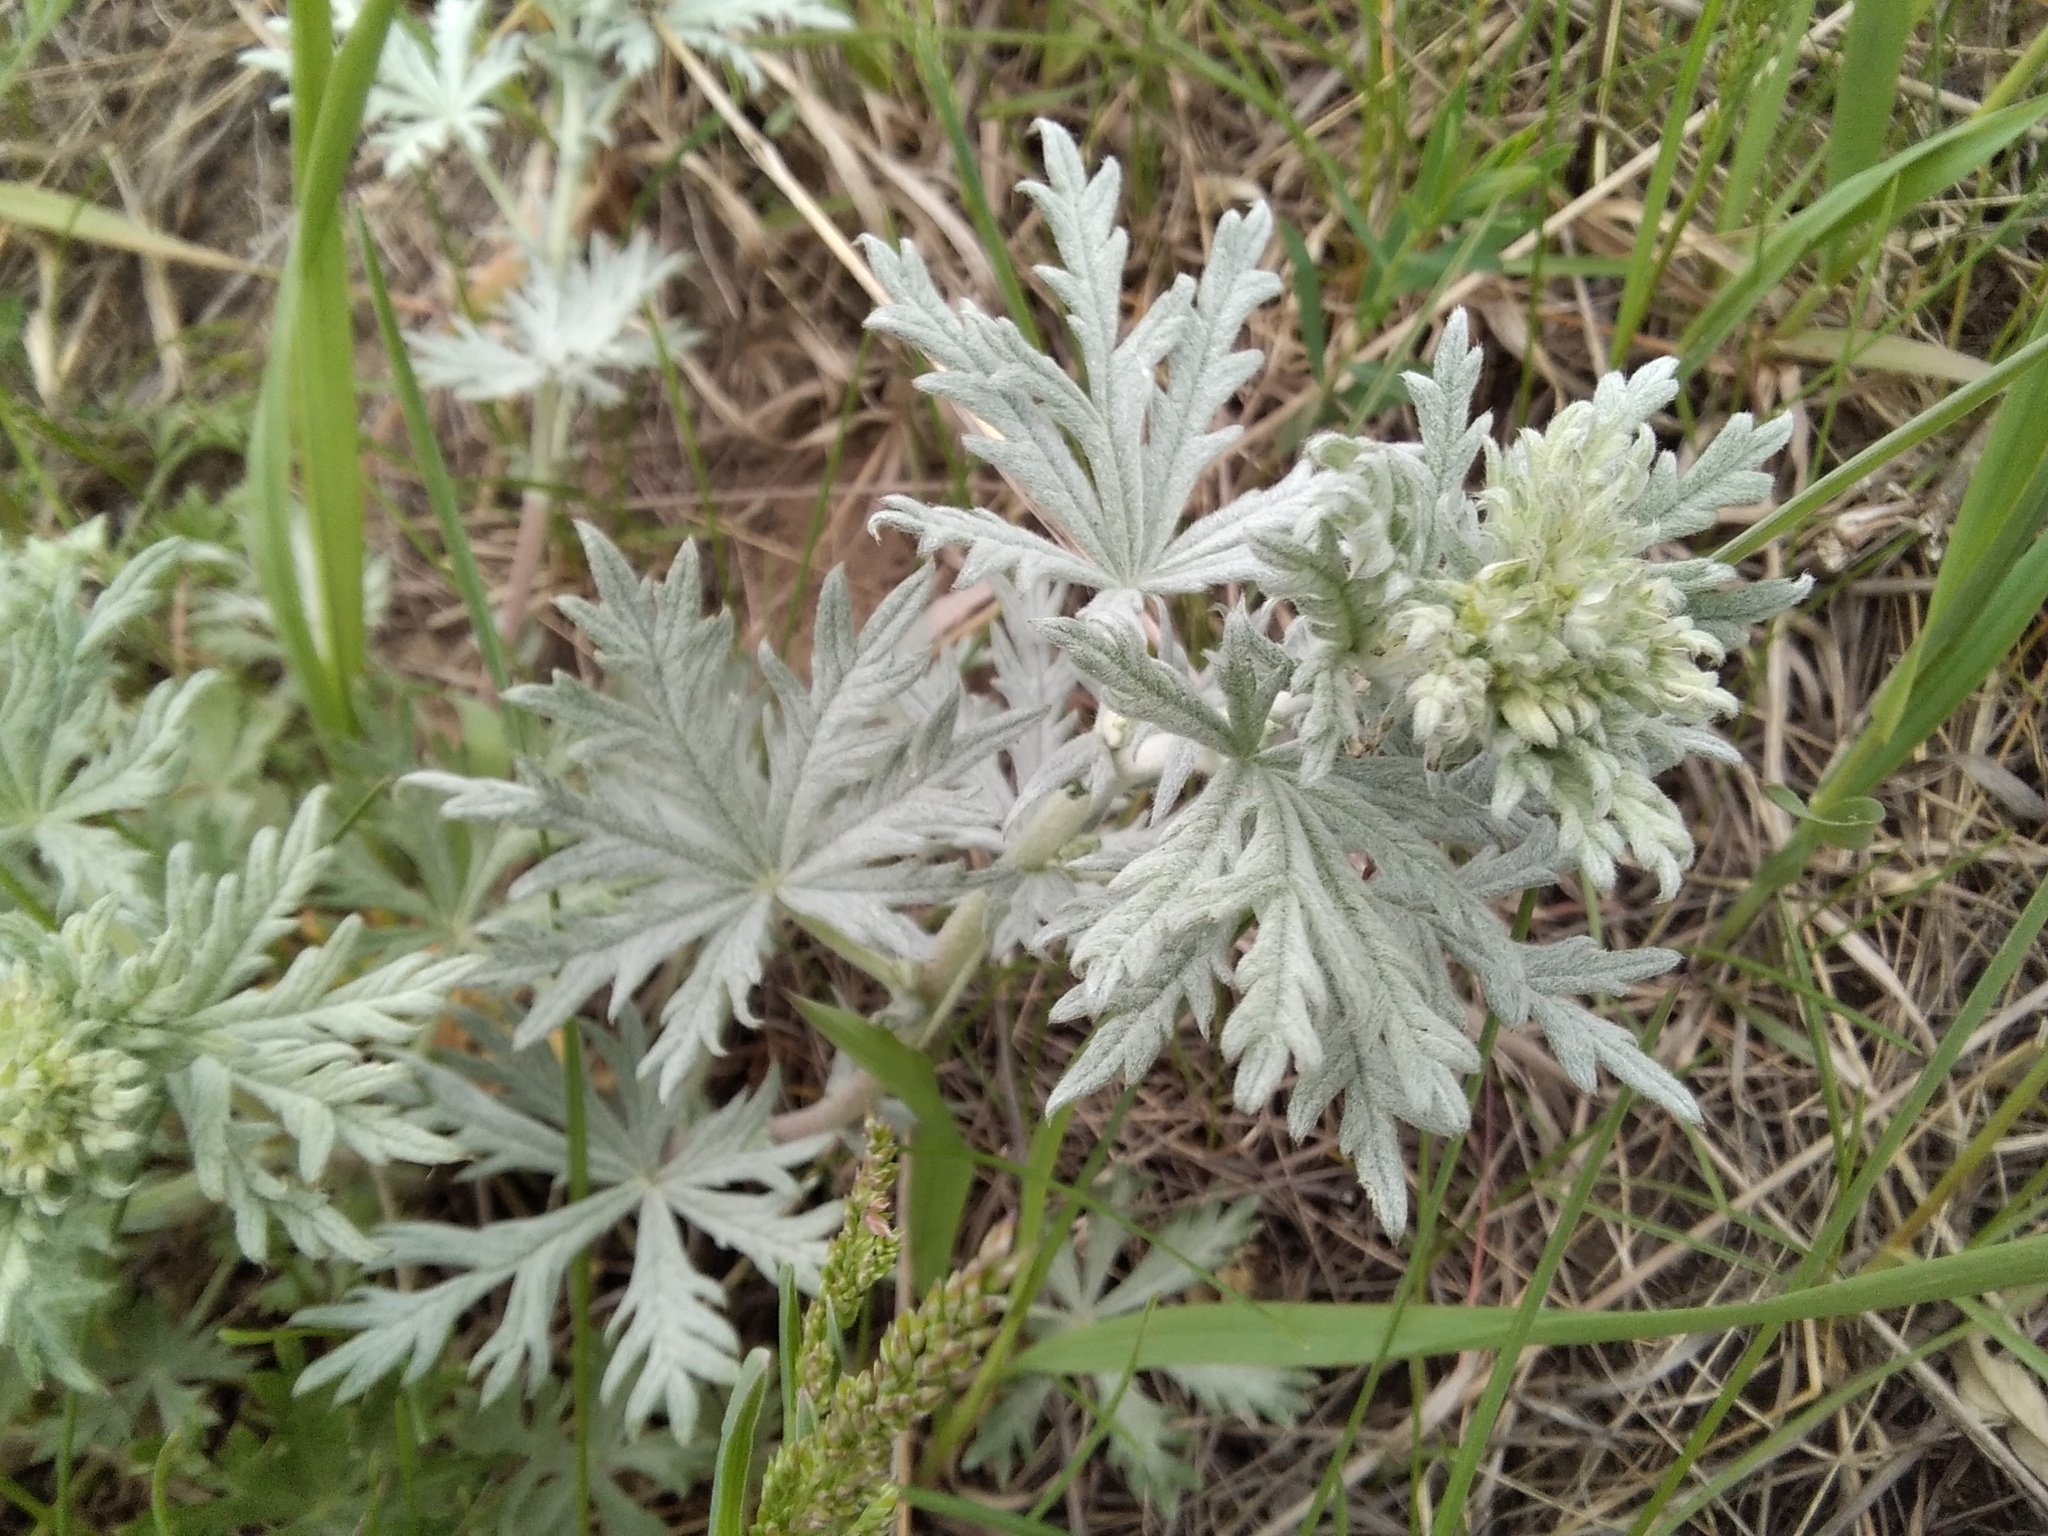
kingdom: Plantae
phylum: Tracheophyta
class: Magnoliopsida
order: Rosales
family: Rosaceae
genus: Potentilla
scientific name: Potentilla argentea
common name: Hoary cinquefoil
